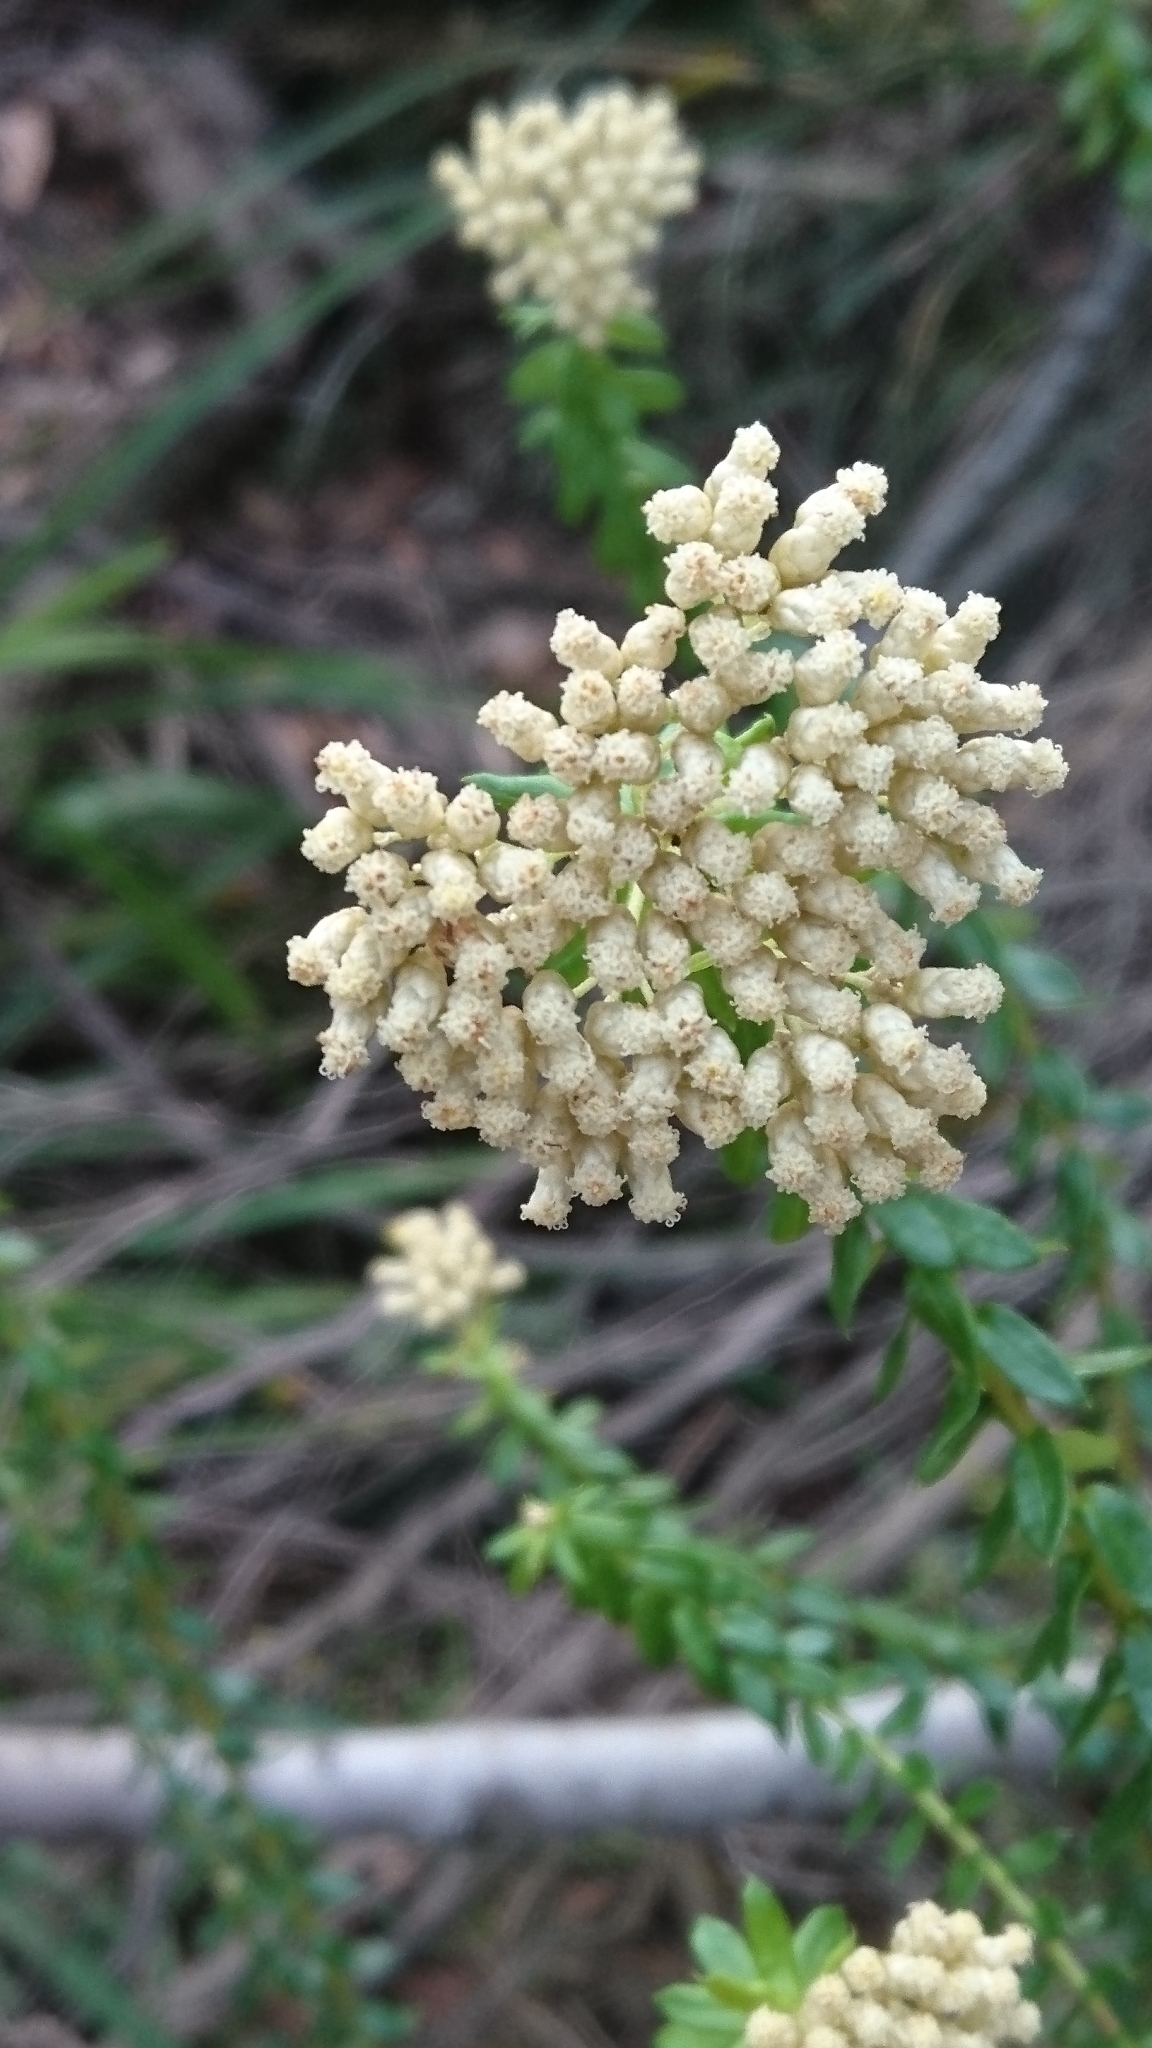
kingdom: Plantae
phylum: Tracheophyta
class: Magnoliopsida
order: Asterales
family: Asteraceae
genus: Cassinia
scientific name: Cassinia denticulata
